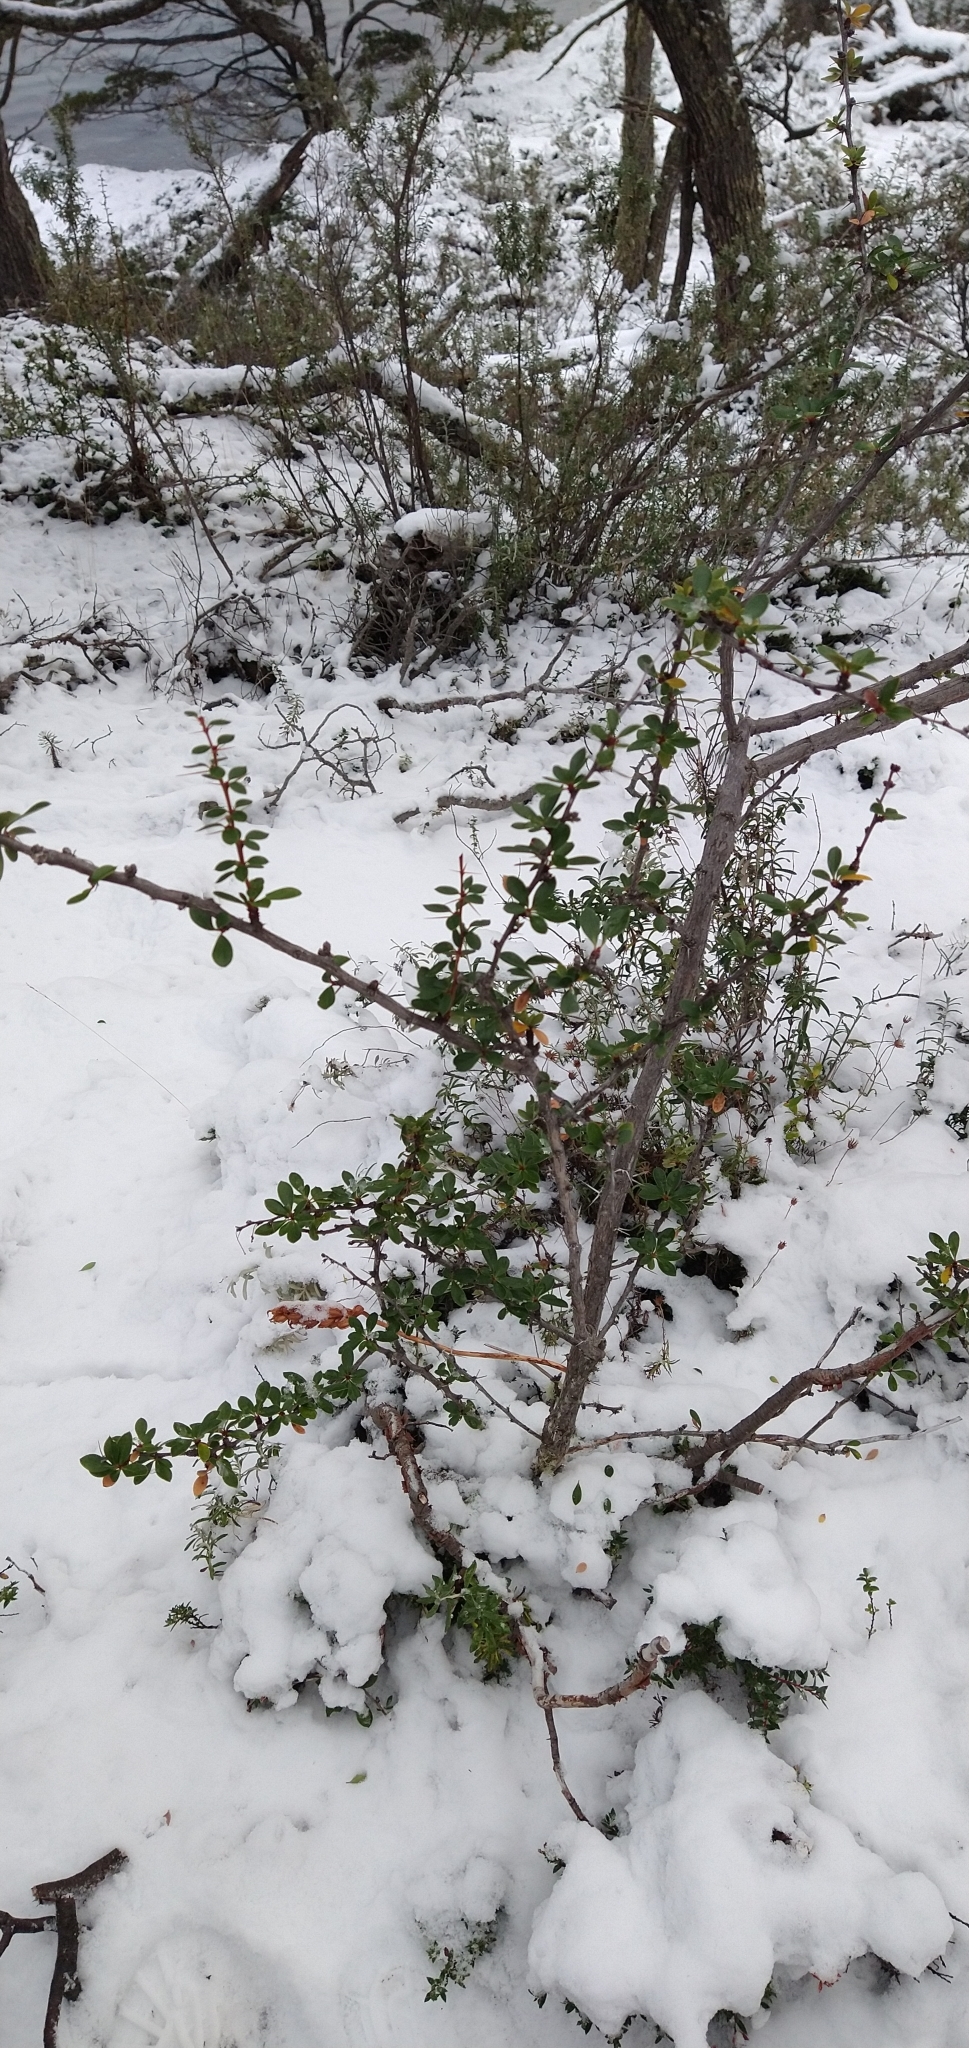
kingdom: Plantae
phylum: Tracheophyta
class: Magnoliopsida
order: Ranunculales
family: Berberidaceae
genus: Berberis
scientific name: Berberis microphylla
